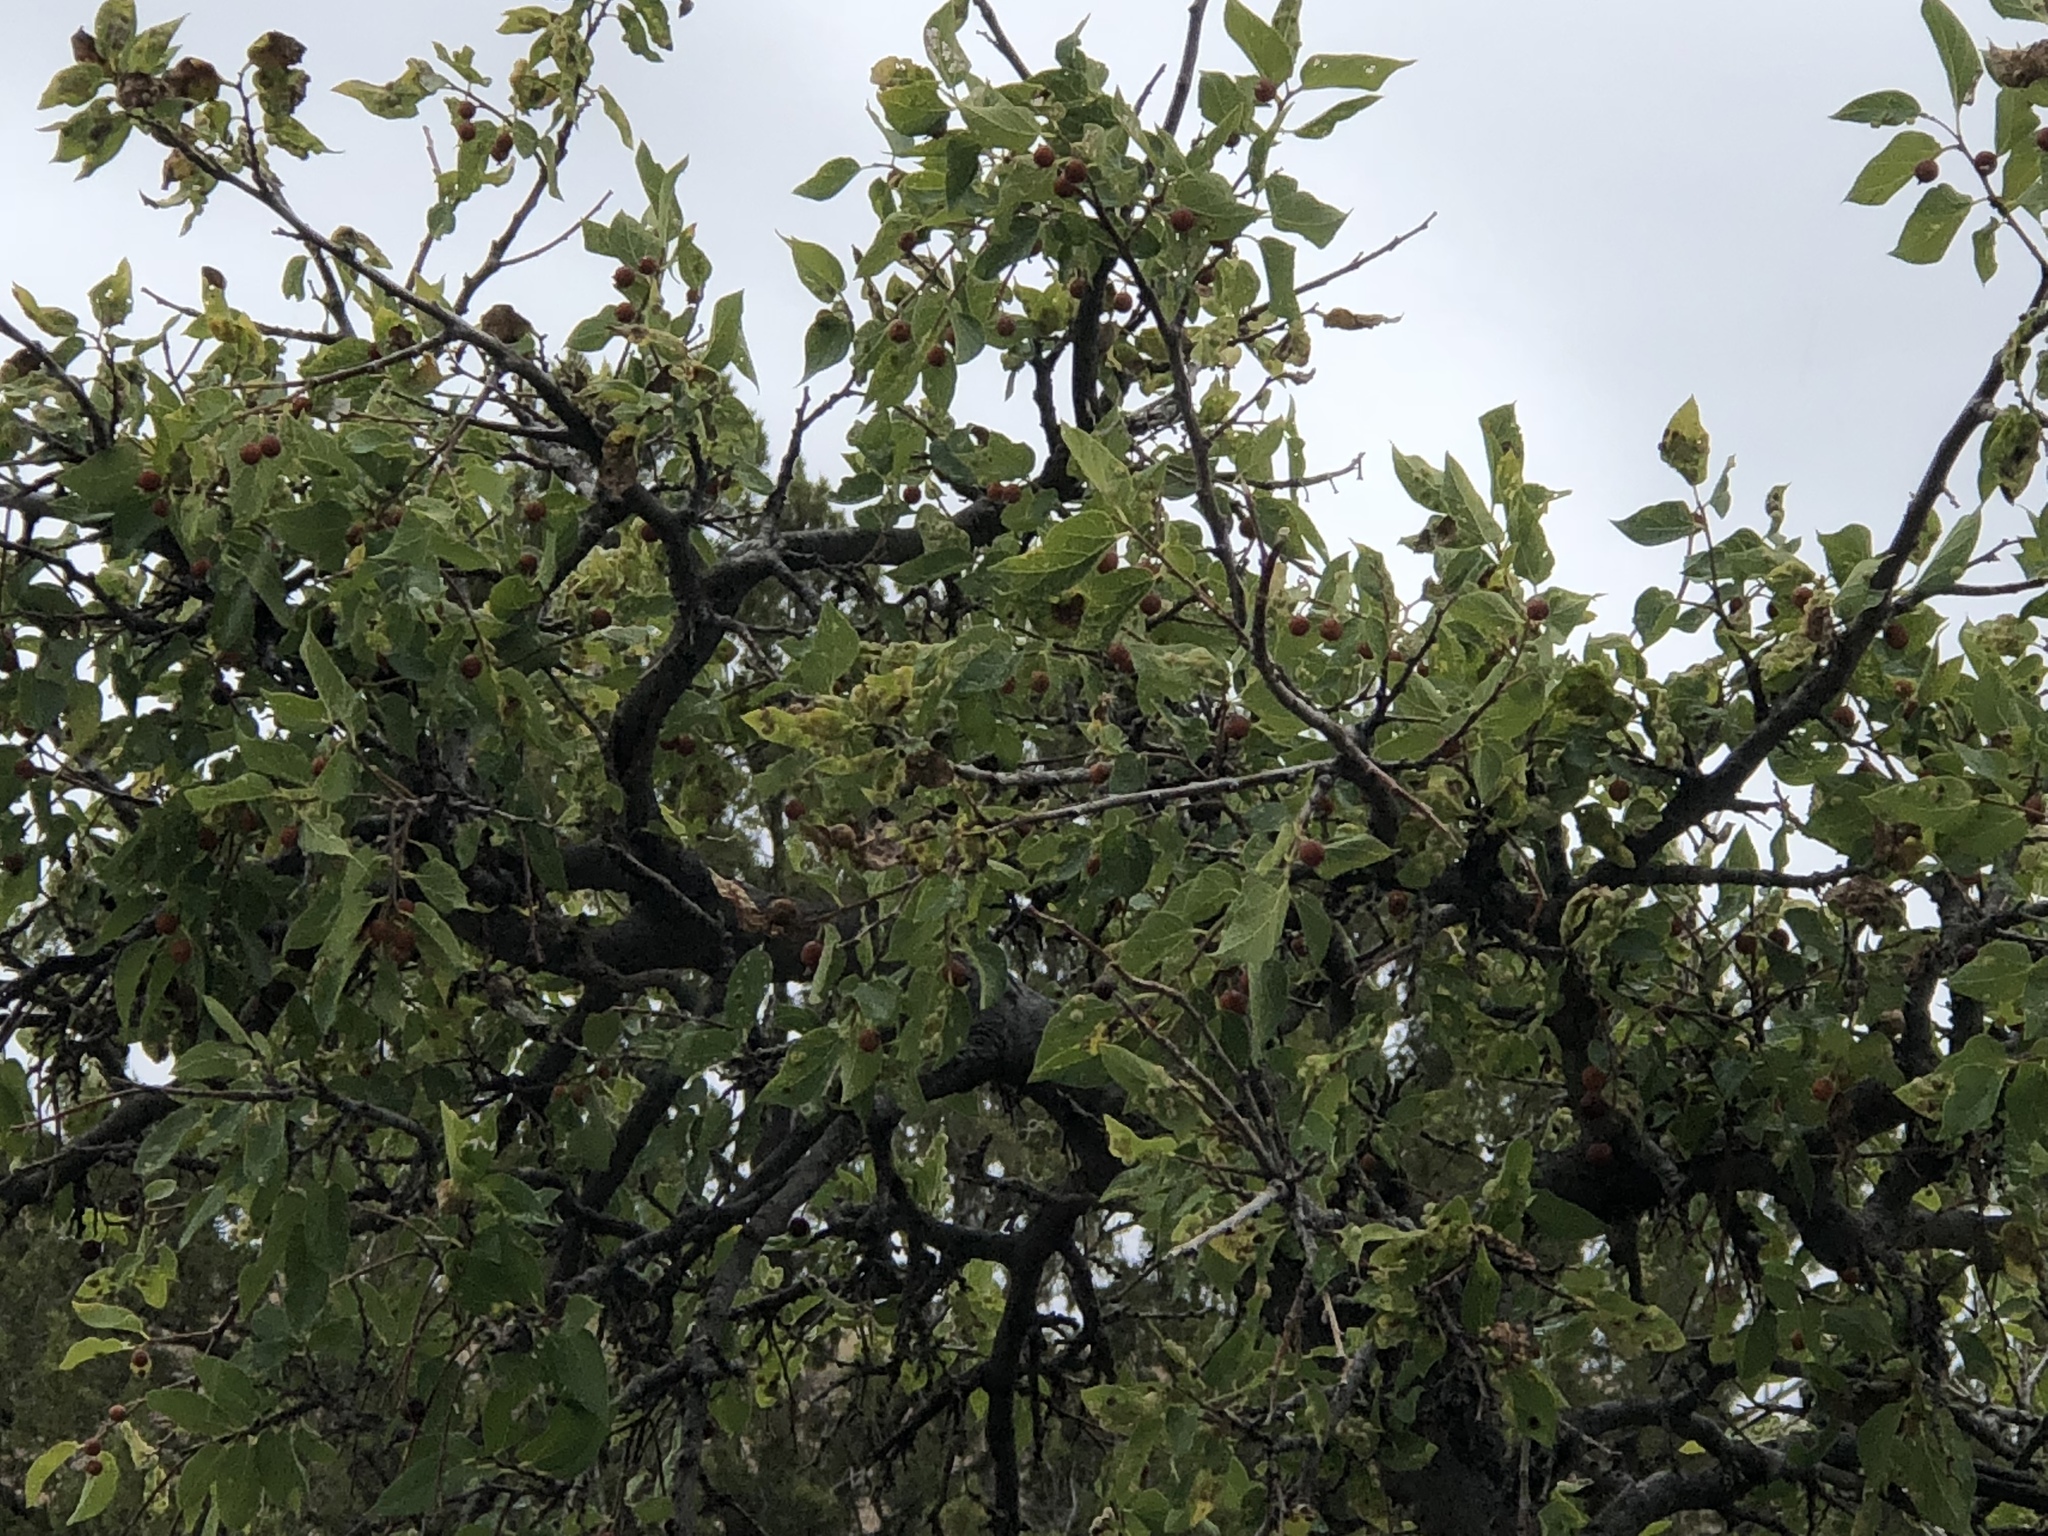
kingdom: Plantae
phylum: Tracheophyta
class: Magnoliopsida
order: Rosales
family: Cannabaceae
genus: Celtis
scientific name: Celtis reticulata
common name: Netleaf hackberry
